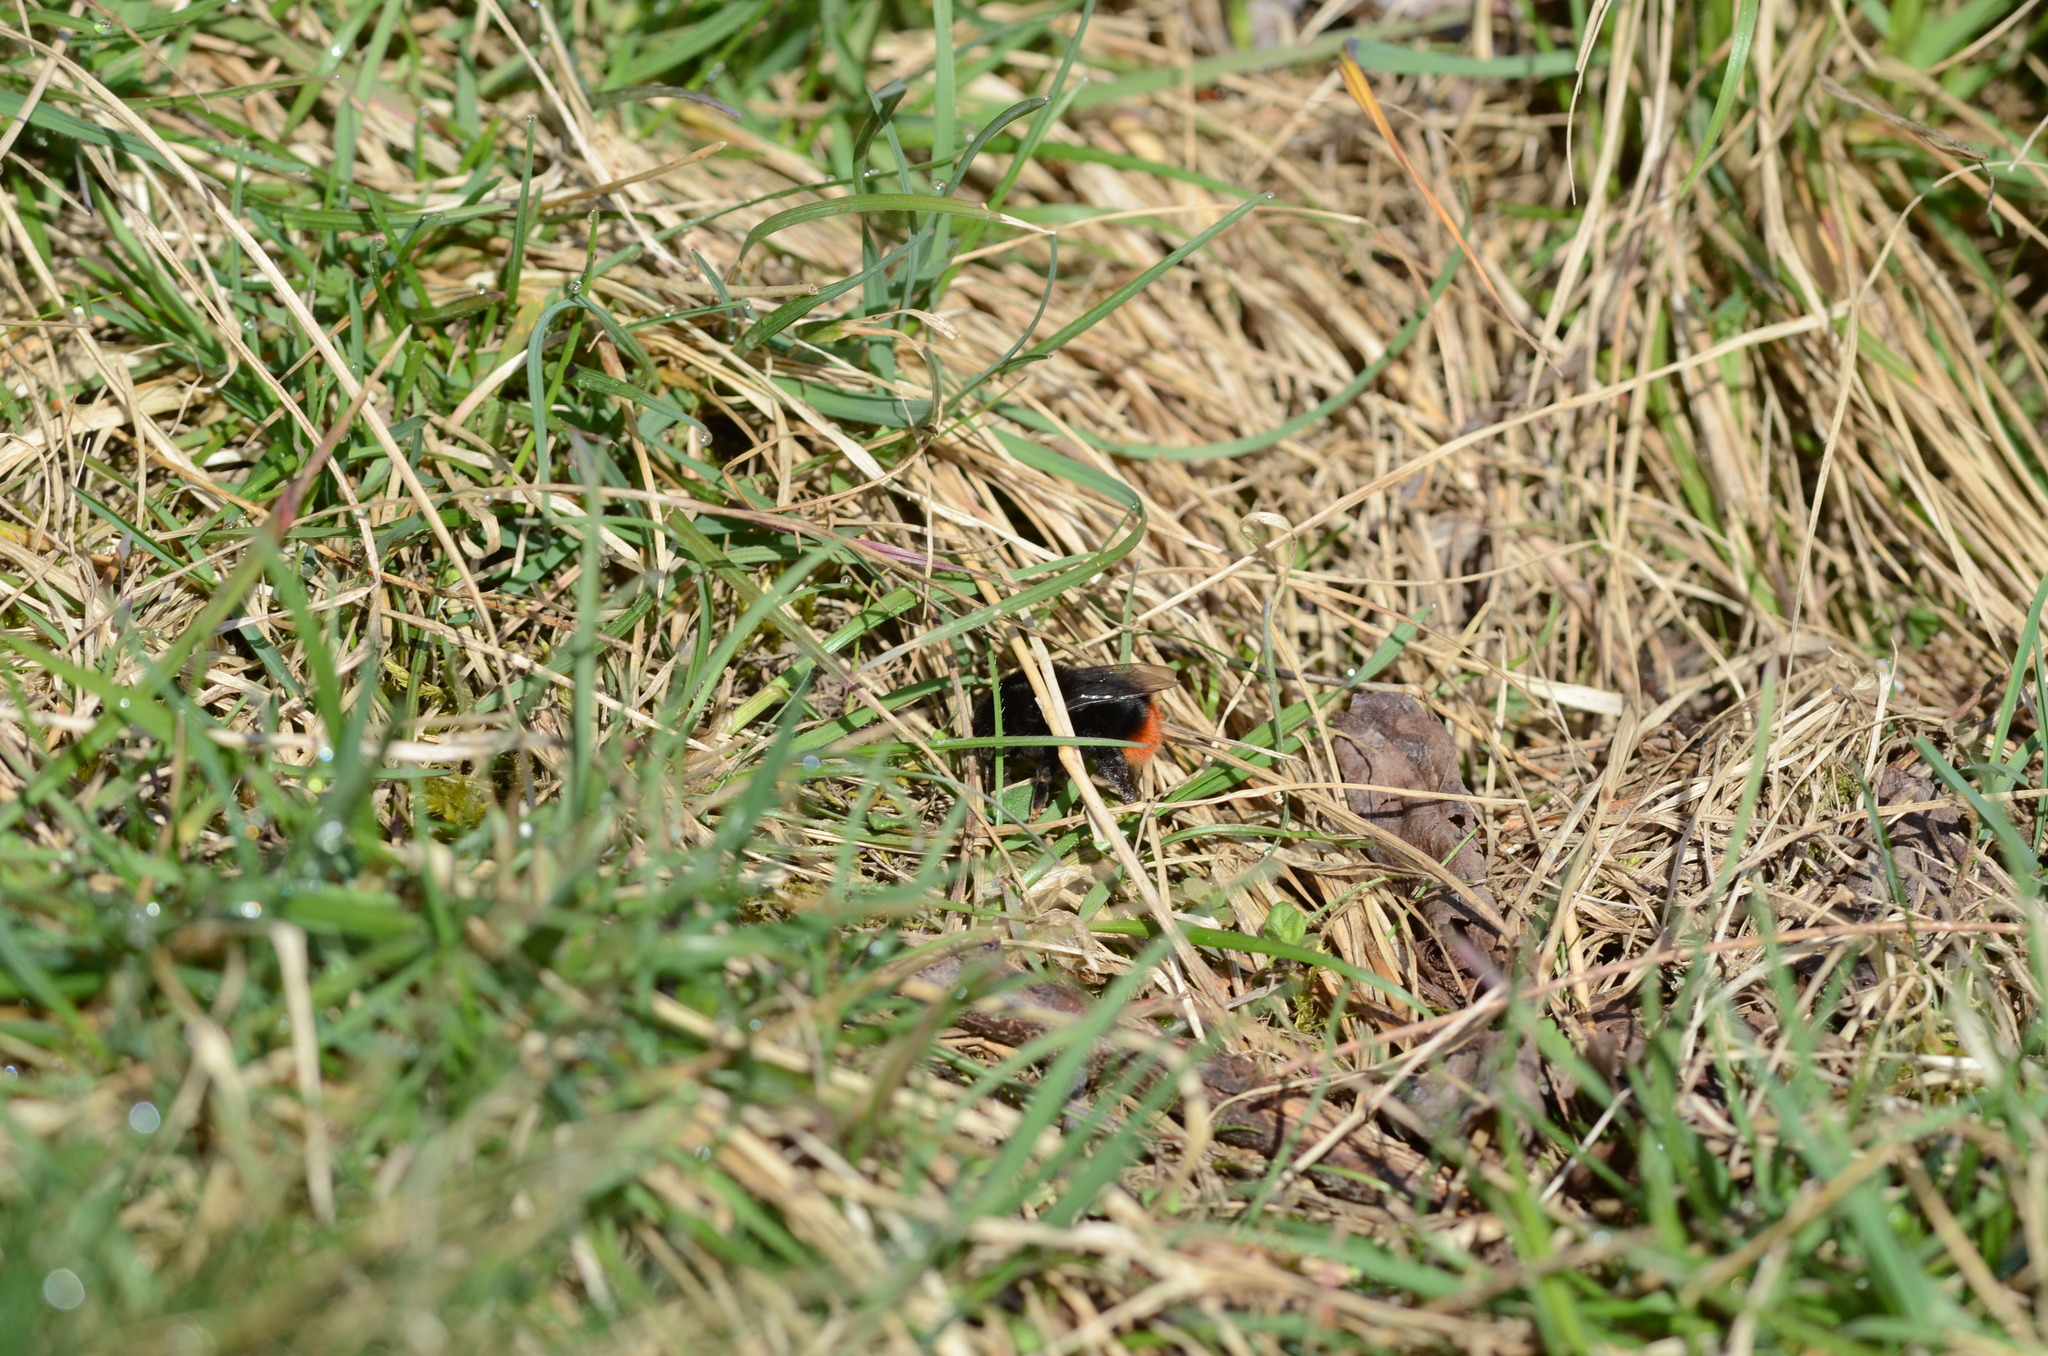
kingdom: Animalia
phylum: Arthropoda
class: Insecta
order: Hymenoptera
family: Apidae
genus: Bombus
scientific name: Bombus lapidarius
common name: Large red-tailed humble-bee
